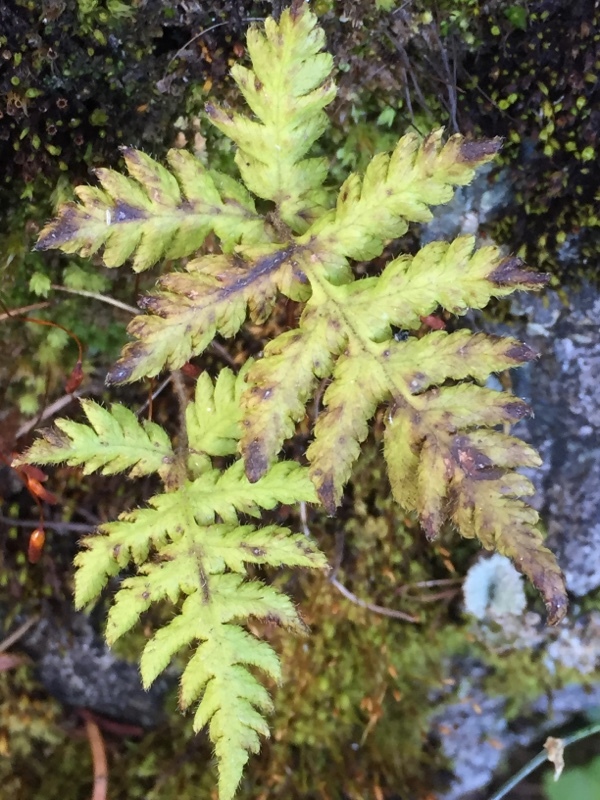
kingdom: Plantae
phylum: Tracheophyta
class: Polypodiopsida
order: Polypodiales
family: Thelypteridaceae
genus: Phegopteris
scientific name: Phegopteris connectilis
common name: Beech fern
